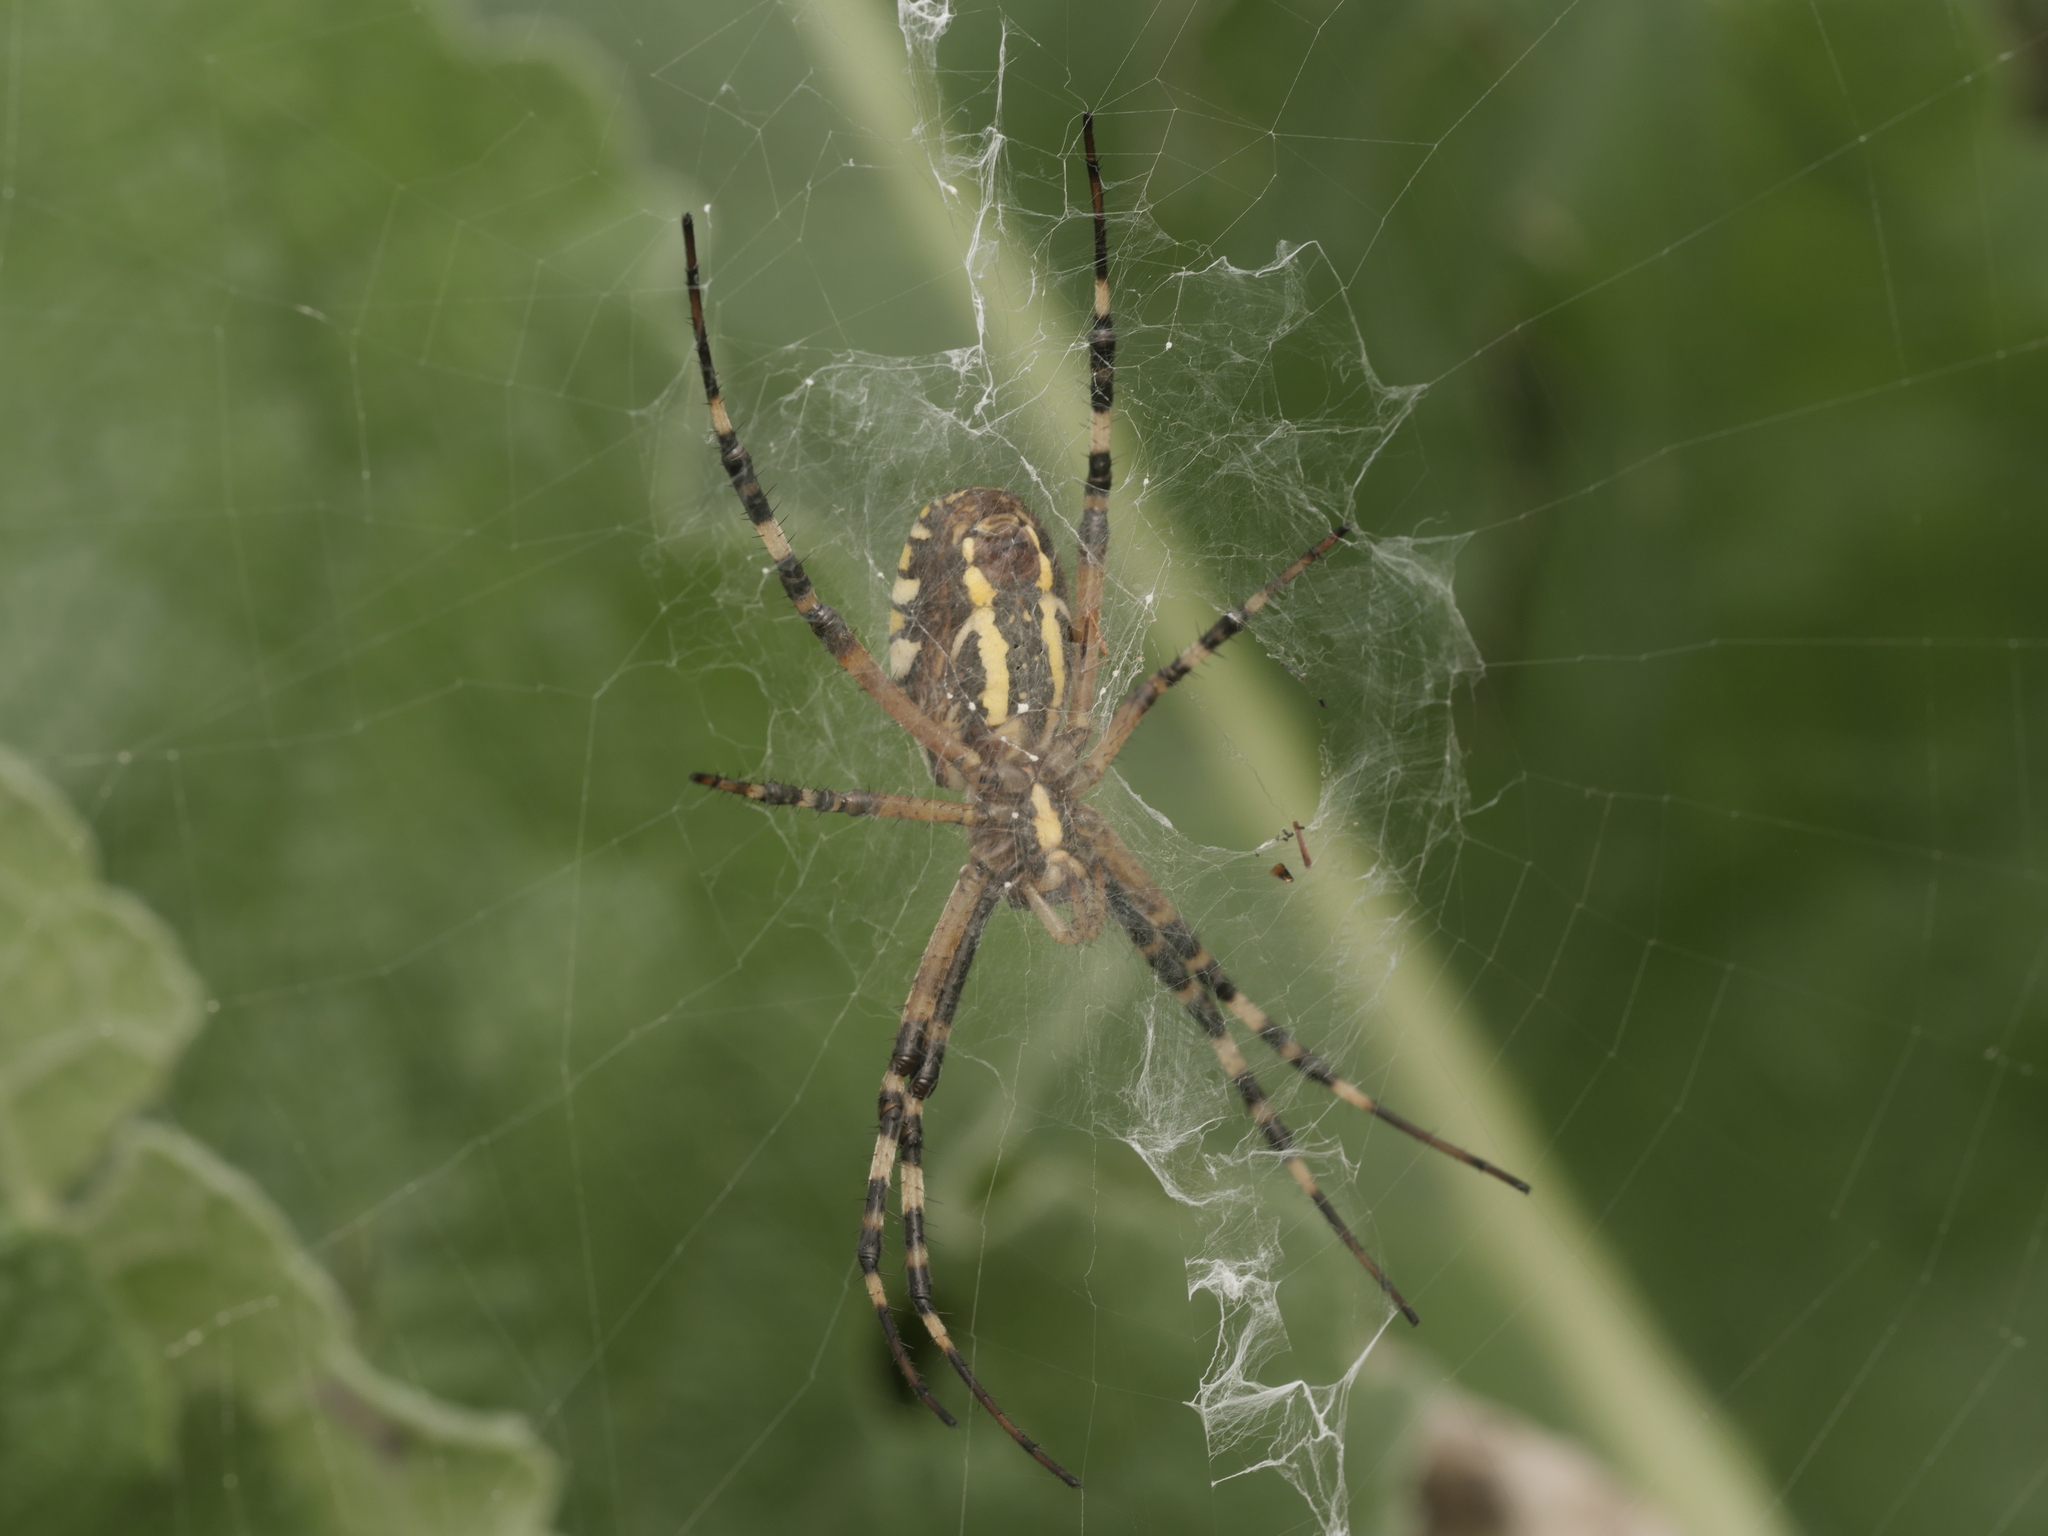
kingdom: Animalia
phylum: Arthropoda
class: Arachnida
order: Araneae
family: Araneidae
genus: Argiope
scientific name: Argiope bruennichi
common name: Wasp spider
